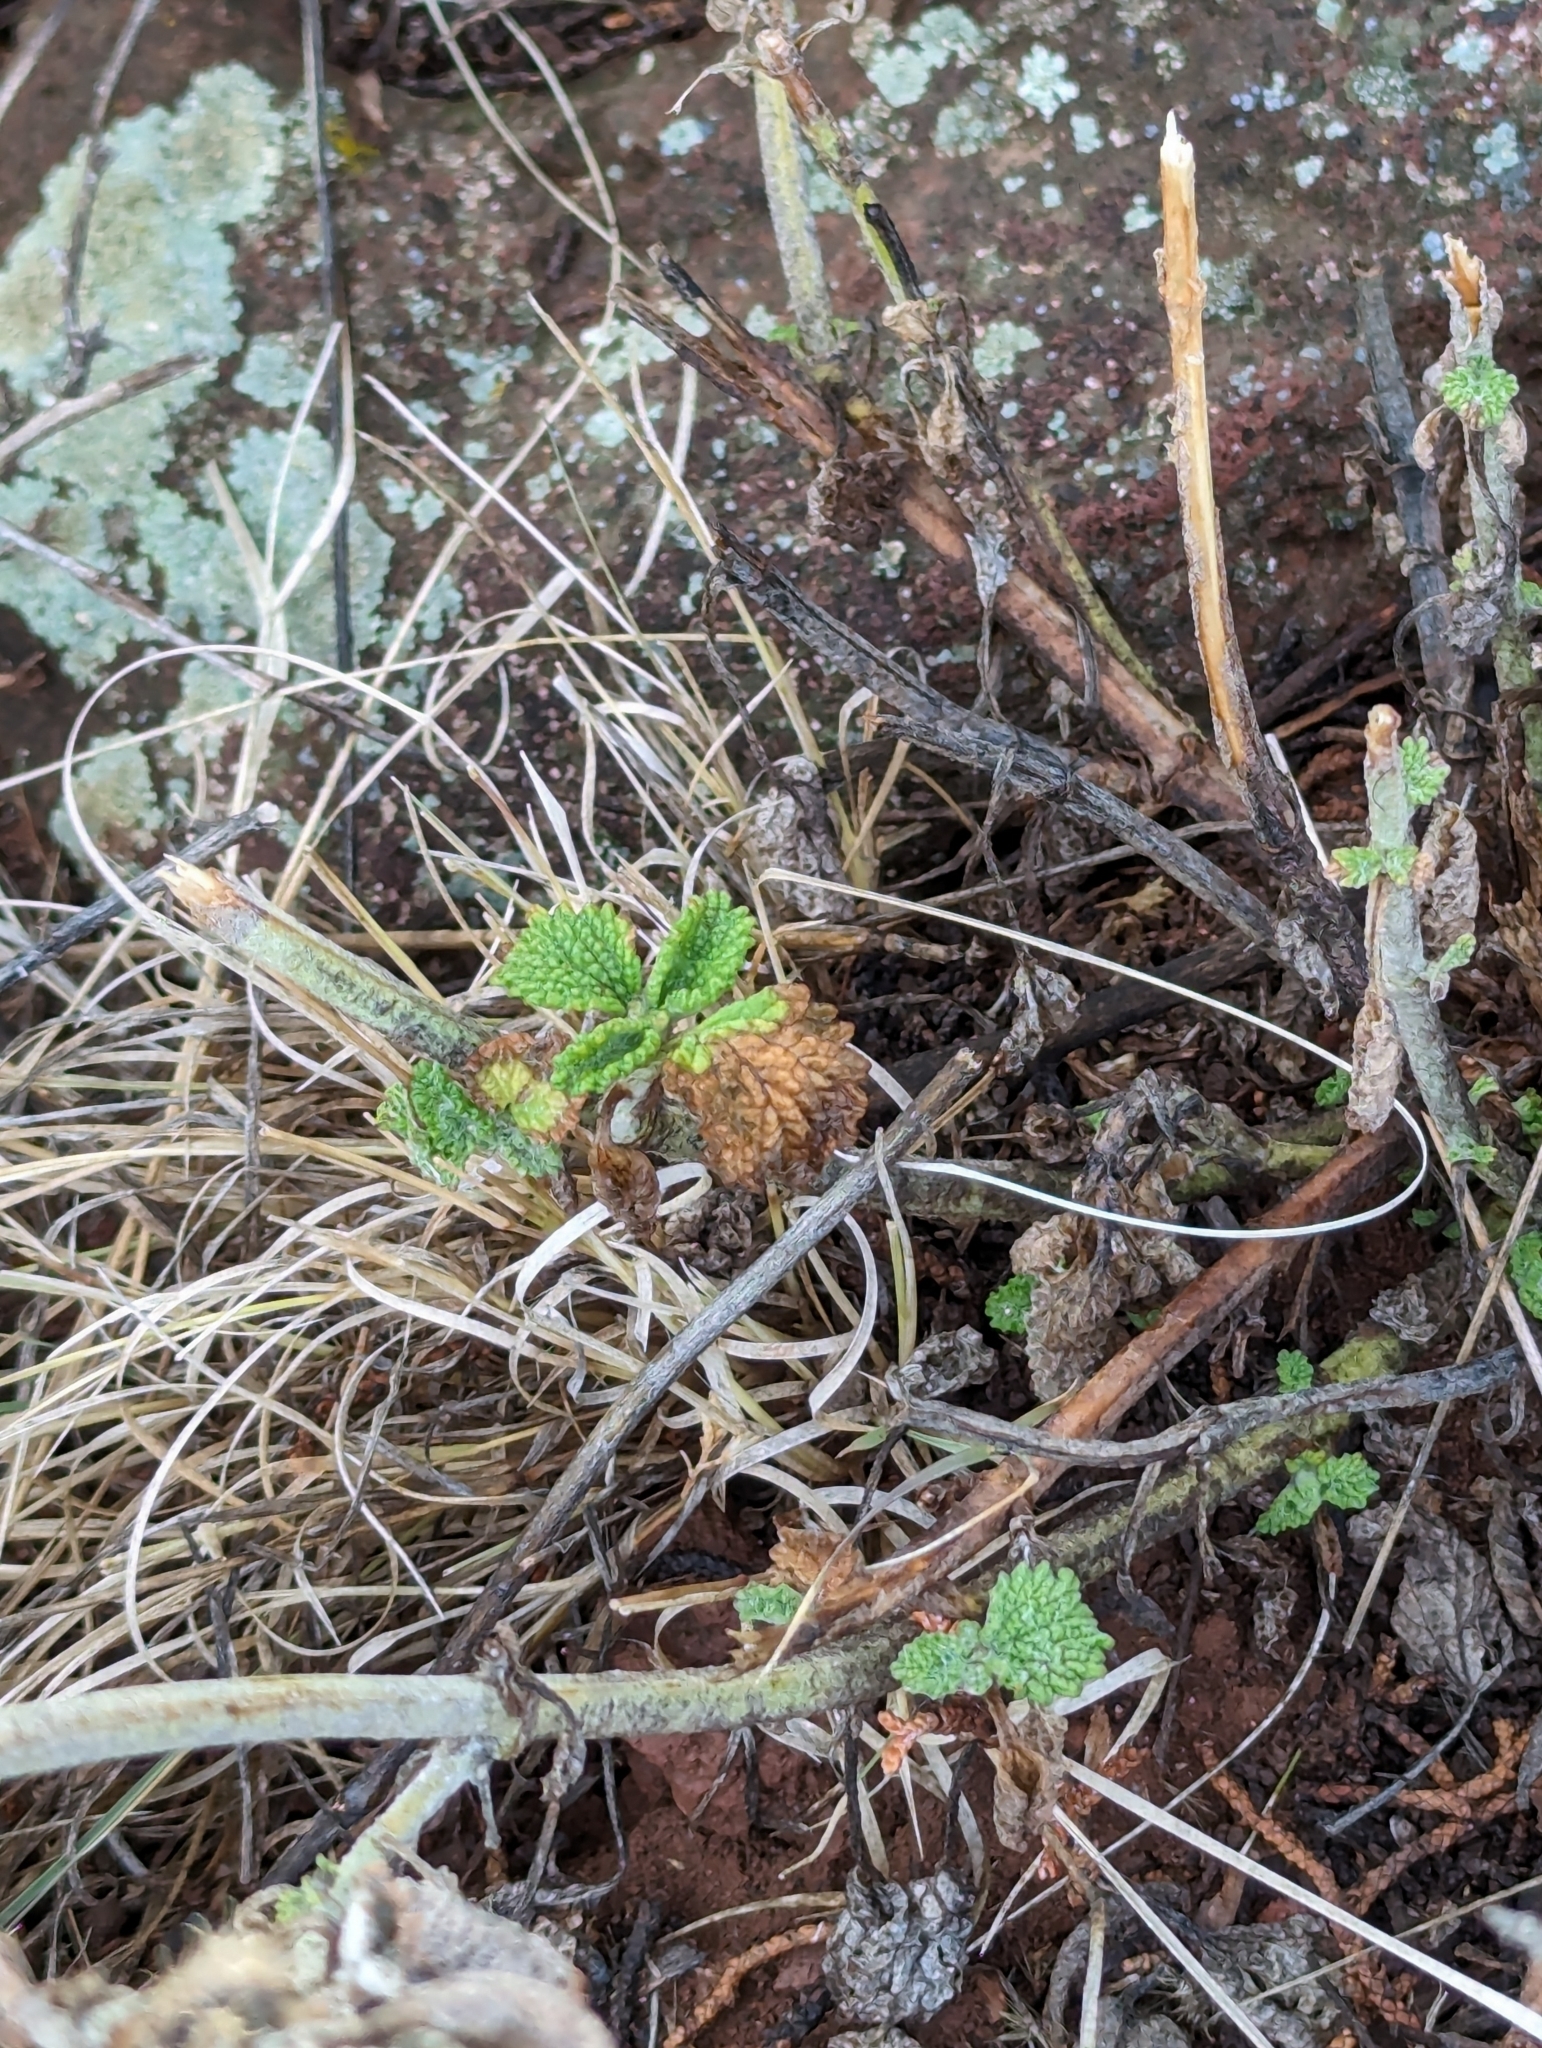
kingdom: Plantae
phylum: Tracheophyta
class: Magnoliopsida
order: Lamiales
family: Lamiaceae
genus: Marrubium
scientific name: Marrubium vulgare
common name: Horehound
